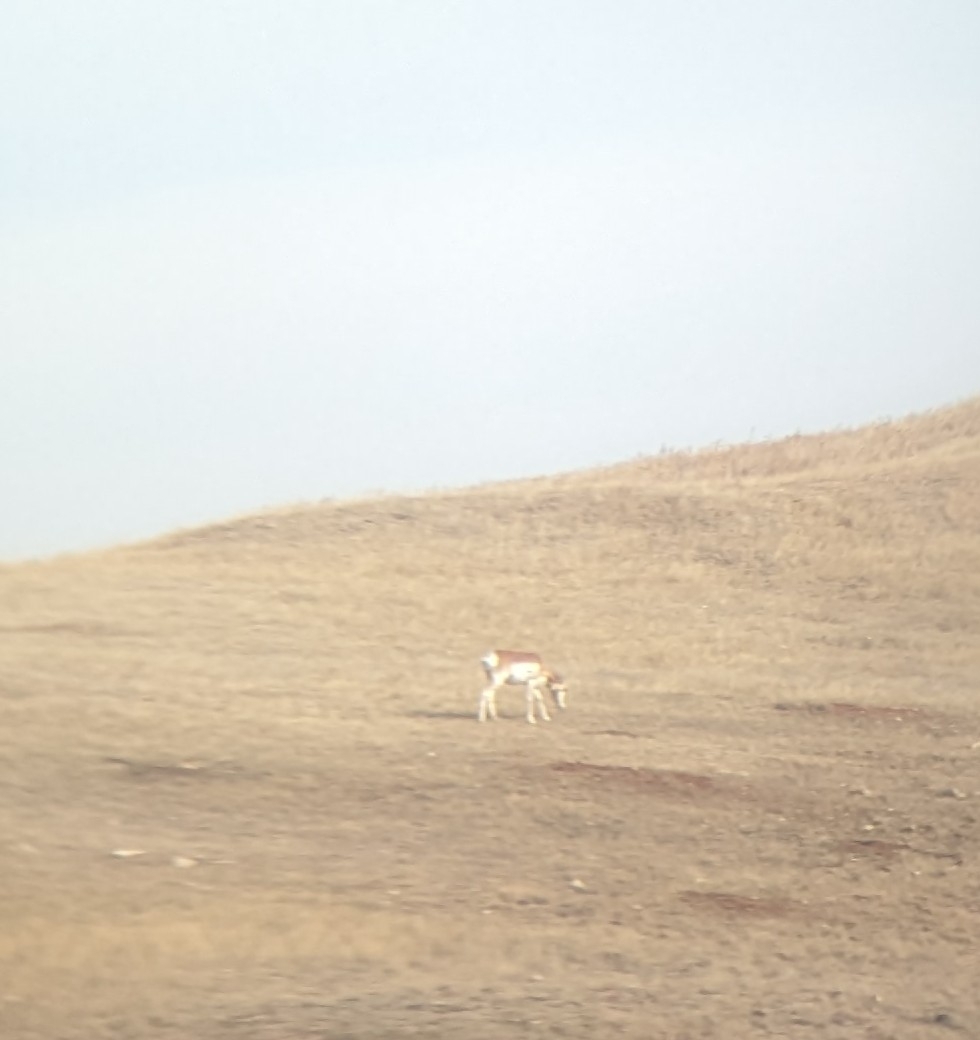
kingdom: Animalia
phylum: Chordata
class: Mammalia
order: Artiodactyla
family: Antilocapridae
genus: Antilocapra
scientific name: Antilocapra americana
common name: Pronghorn
